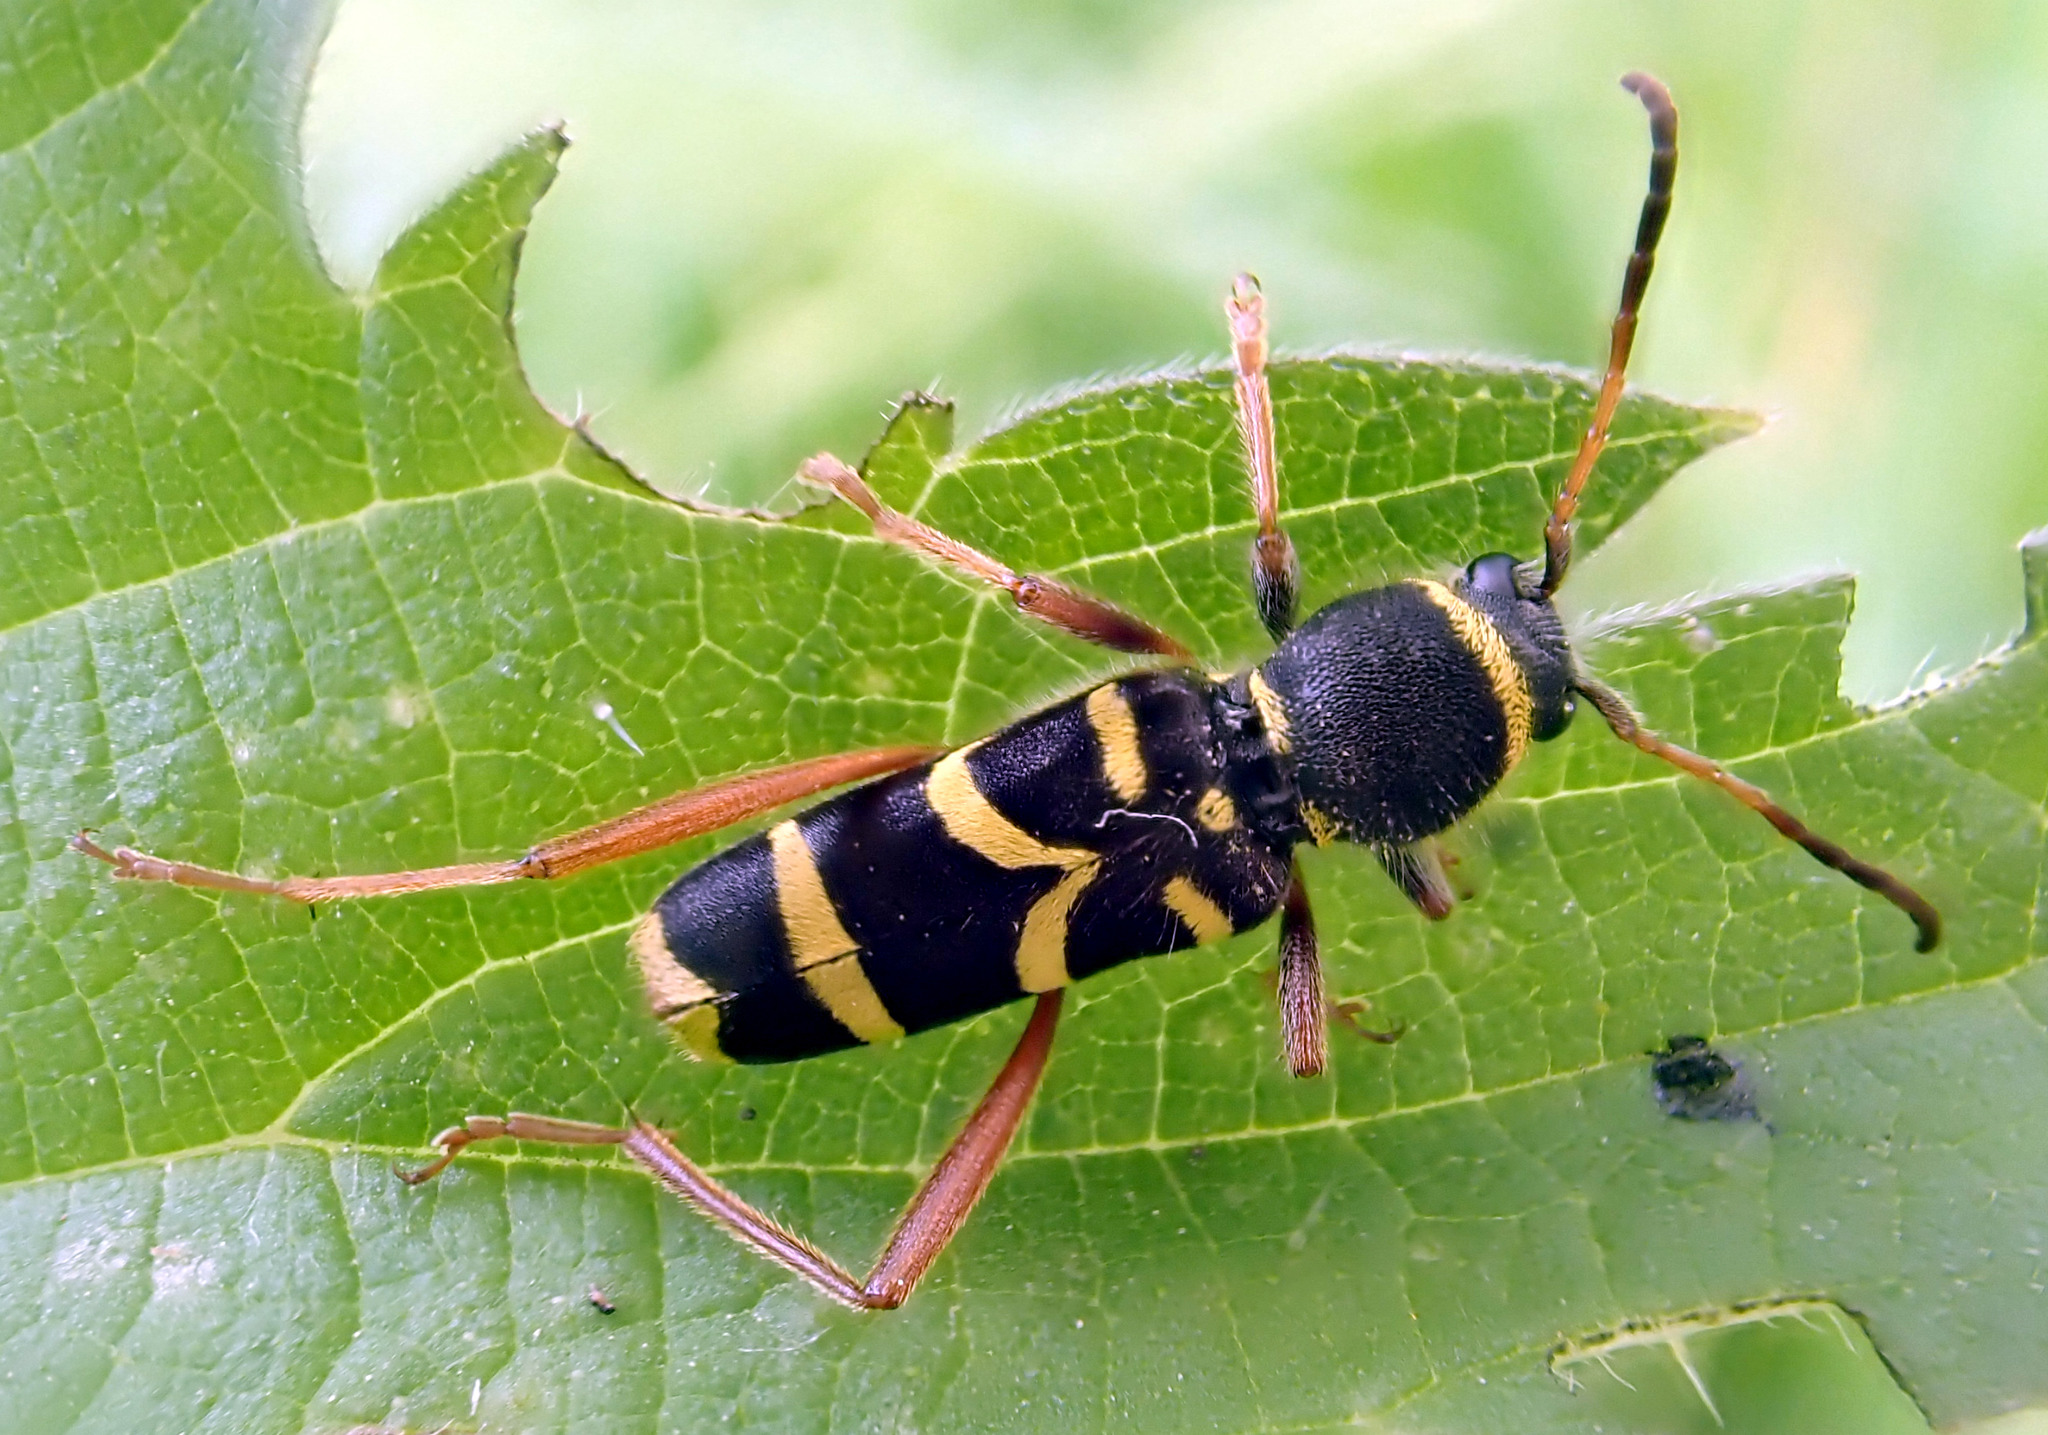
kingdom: Animalia
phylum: Arthropoda
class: Insecta
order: Coleoptera
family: Cerambycidae
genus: Clytus
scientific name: Clytus arietis
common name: Wasp beetle
